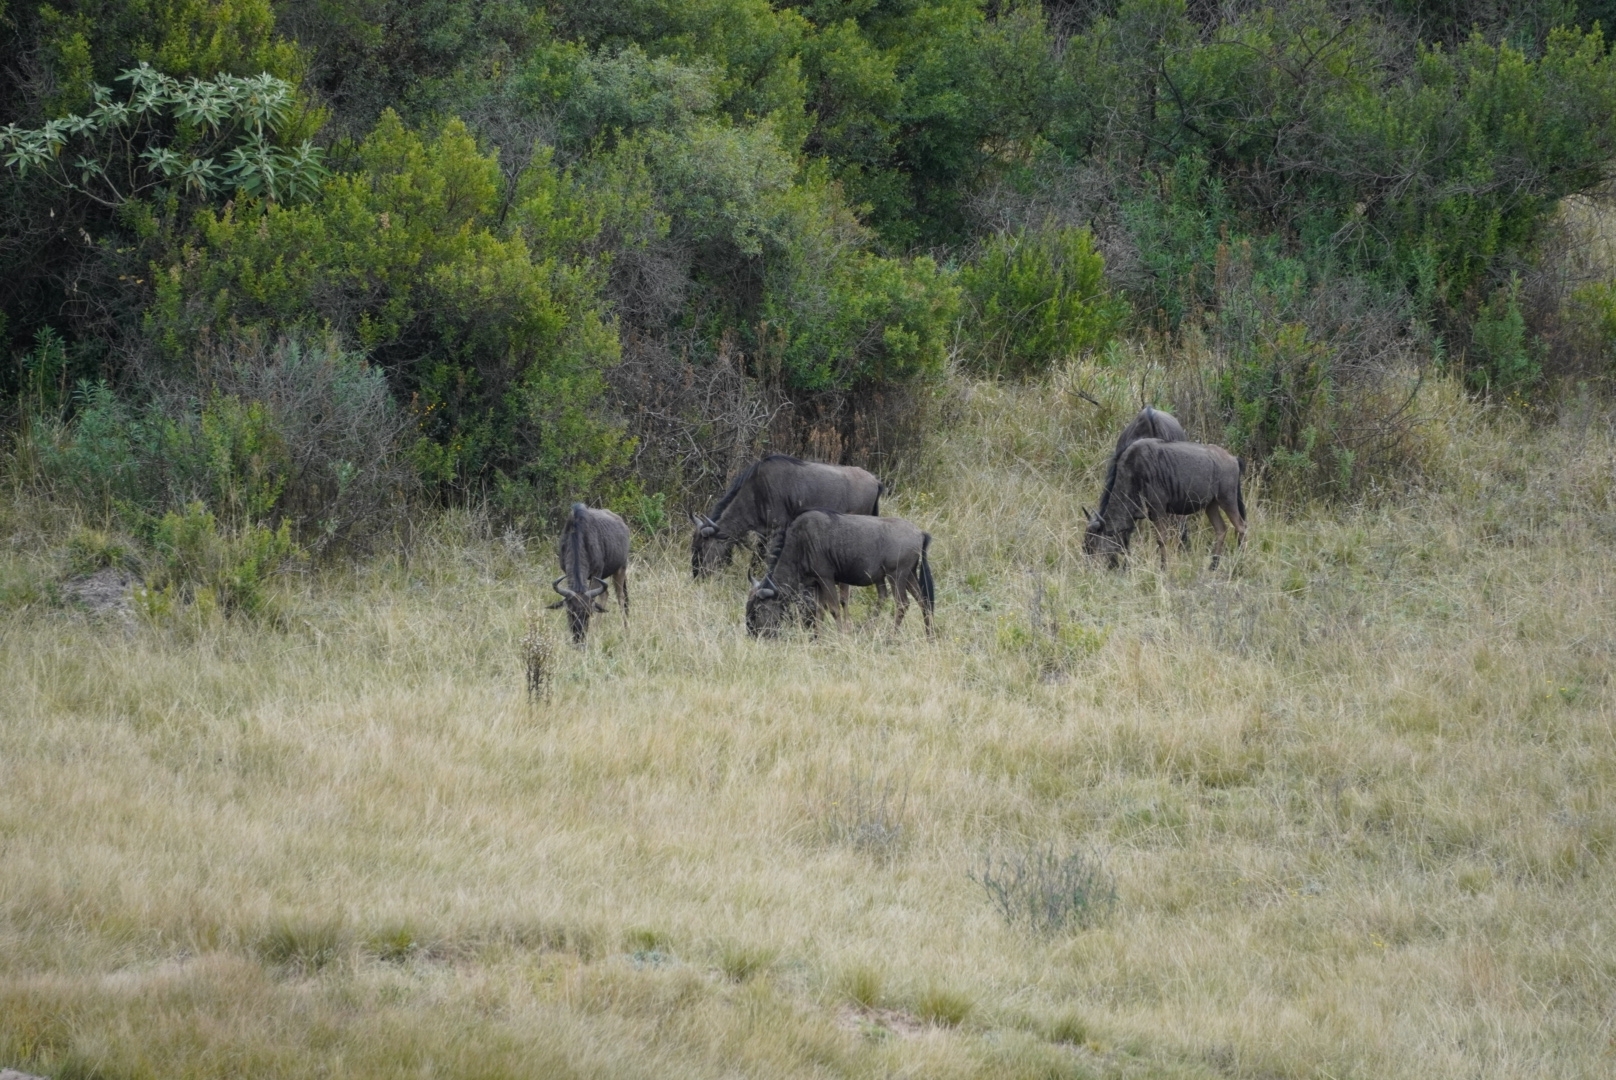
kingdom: Animalia
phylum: Chordata
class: Mammalia
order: Artiodactyla
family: Bovidae
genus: Connochaetes
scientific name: Connochaetes taurinus
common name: Blue wildebeest
